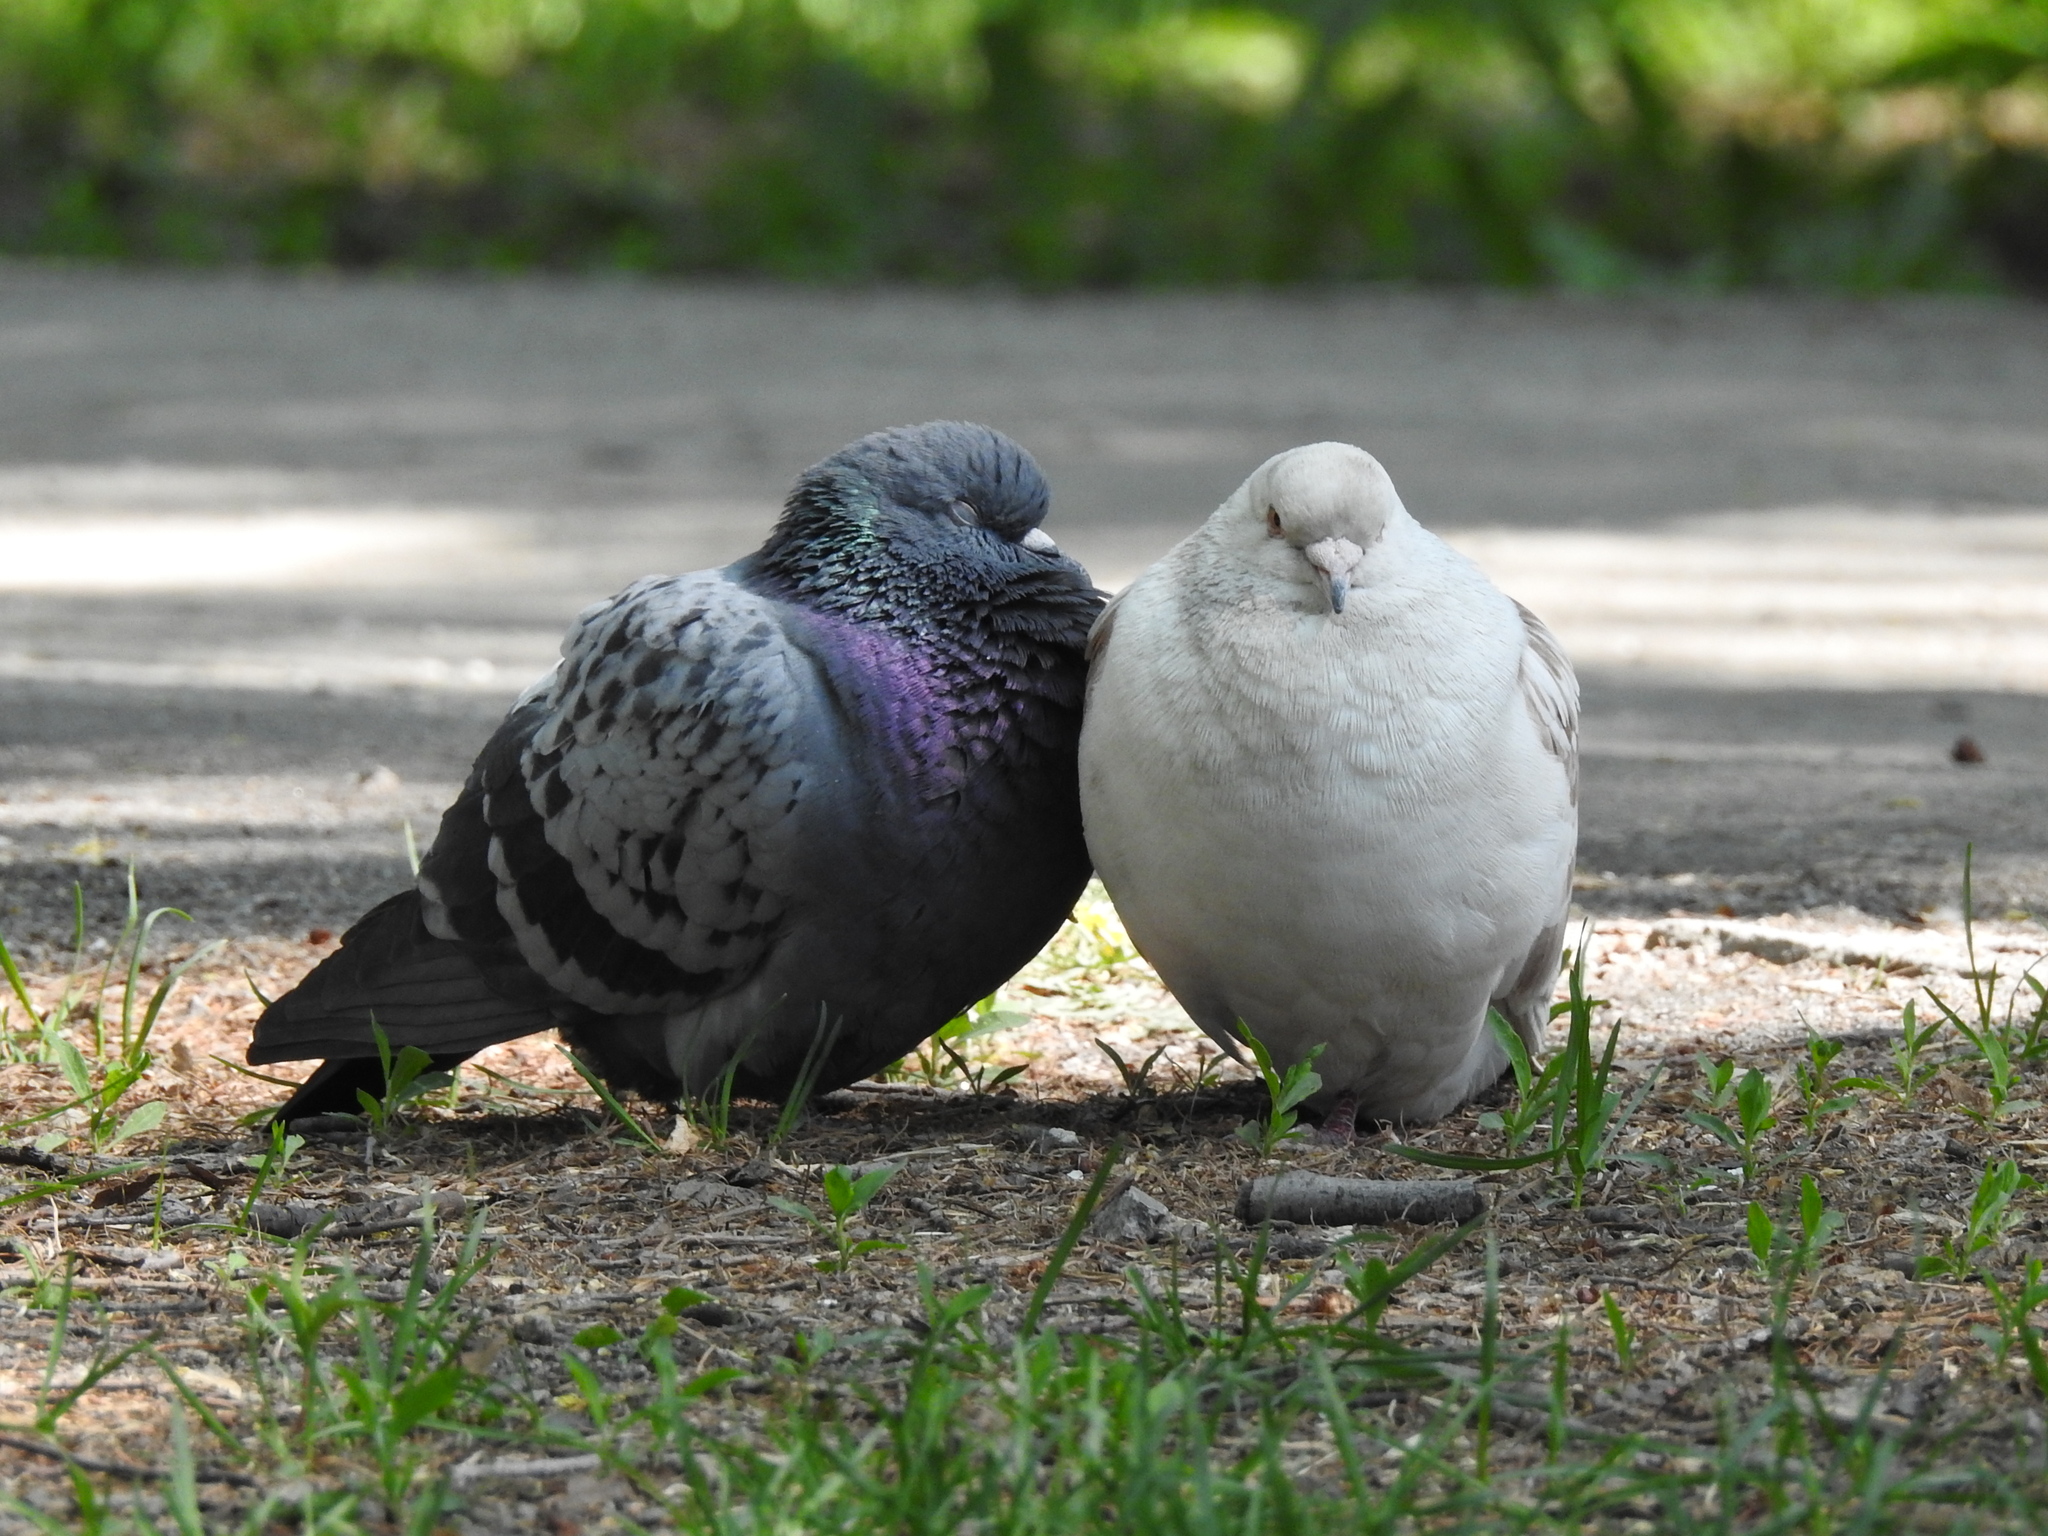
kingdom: Animalia
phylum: Chordata
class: Aves
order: Columbiformes
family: Columbidae
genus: Columba
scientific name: Columba livia
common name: Rock pigeon
